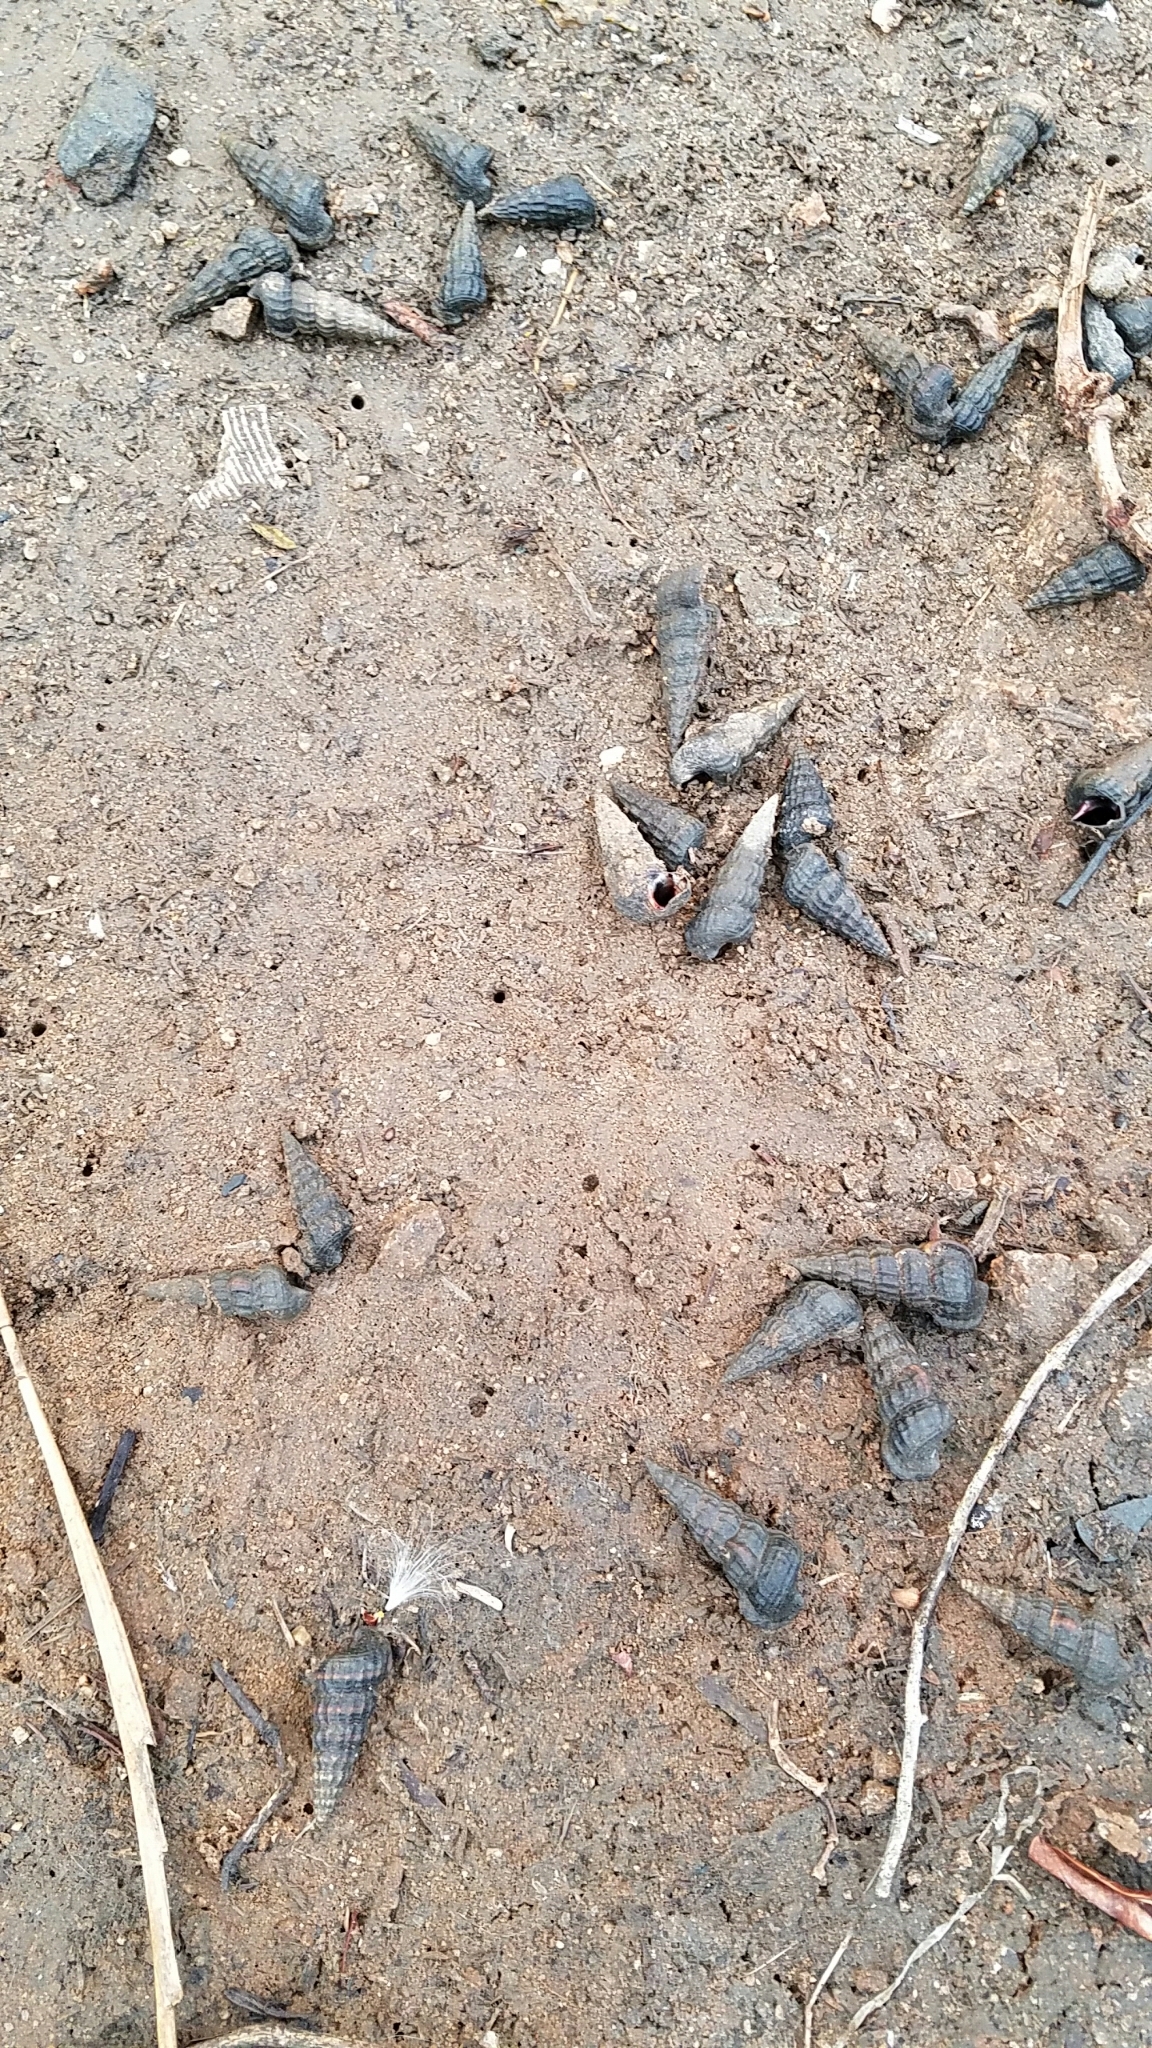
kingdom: Animalia
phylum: Mollusca
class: Gastropoda
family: Potamididae
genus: Cerithideopsis
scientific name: Cerithideopsis californica
